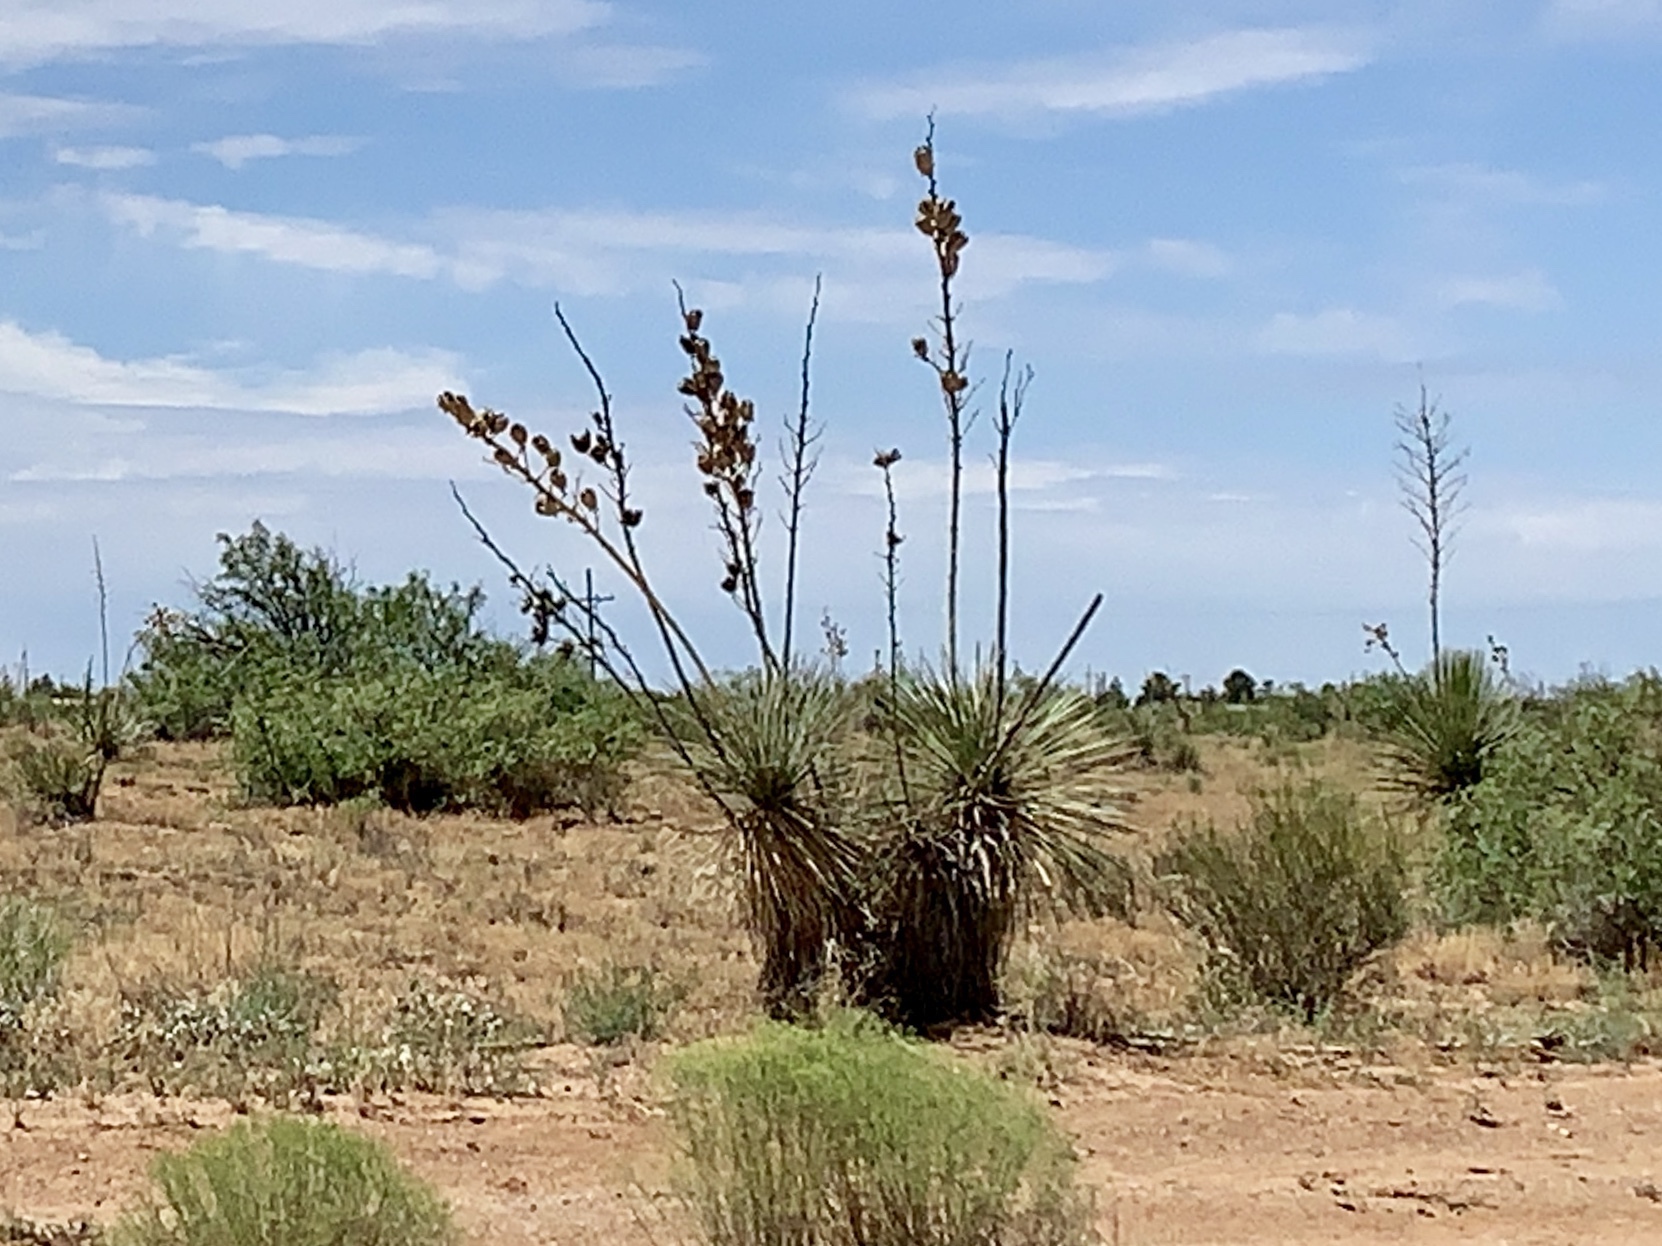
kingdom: Plantae
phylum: Tracheophyta
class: Liliopsida
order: Asparagales
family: Asparagaceae
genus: Yucca
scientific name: Yucca elata
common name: Palmella
